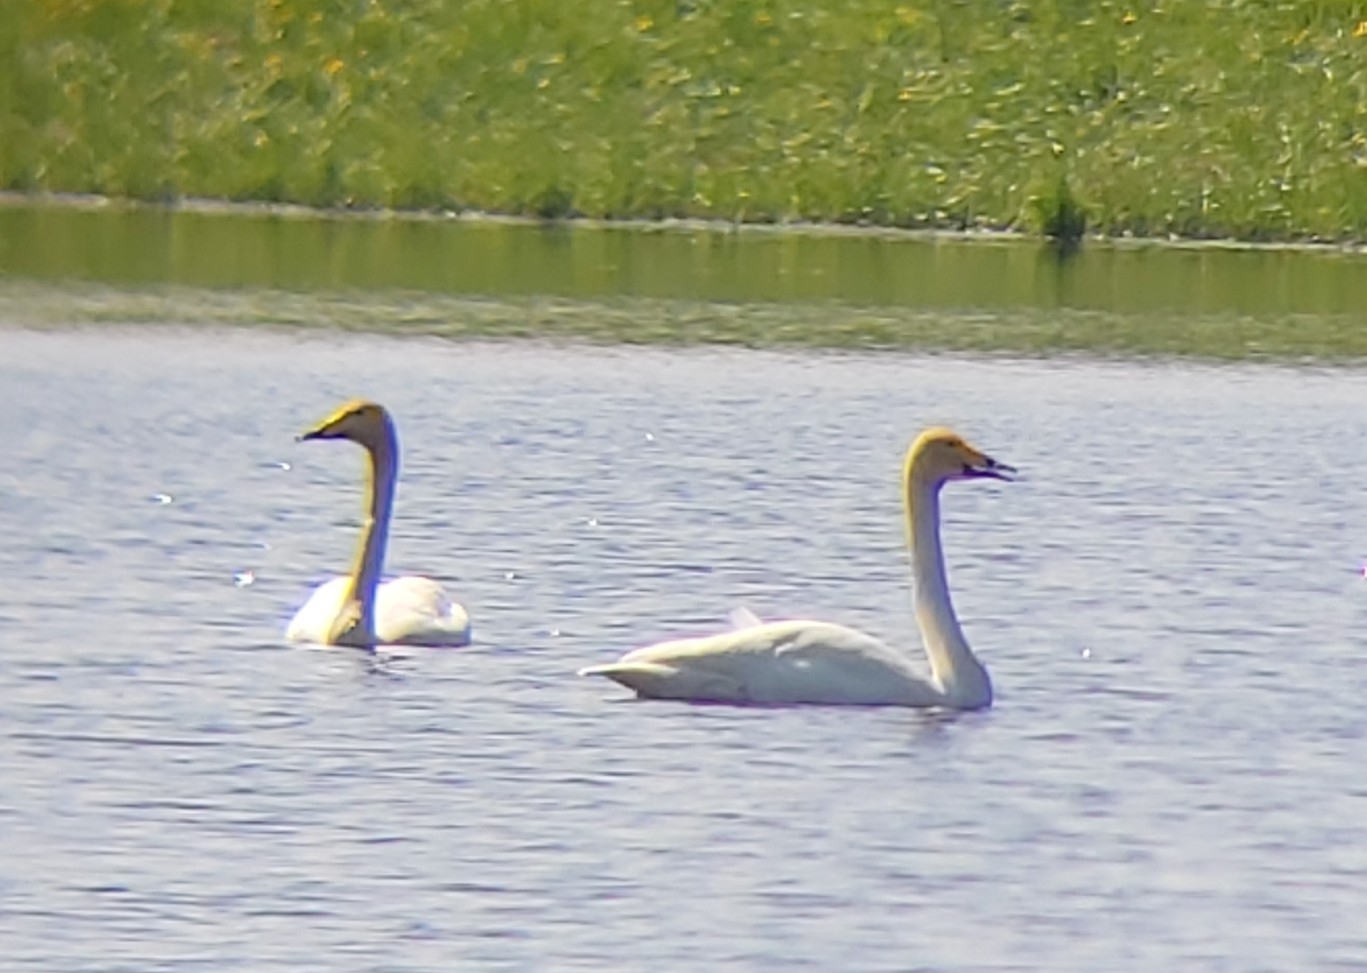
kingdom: Animalia
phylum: Chordata
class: Aves
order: Anseriformes
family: Anatidae
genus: Cygnus
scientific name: Cygnus cygnus
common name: Whooper swan
